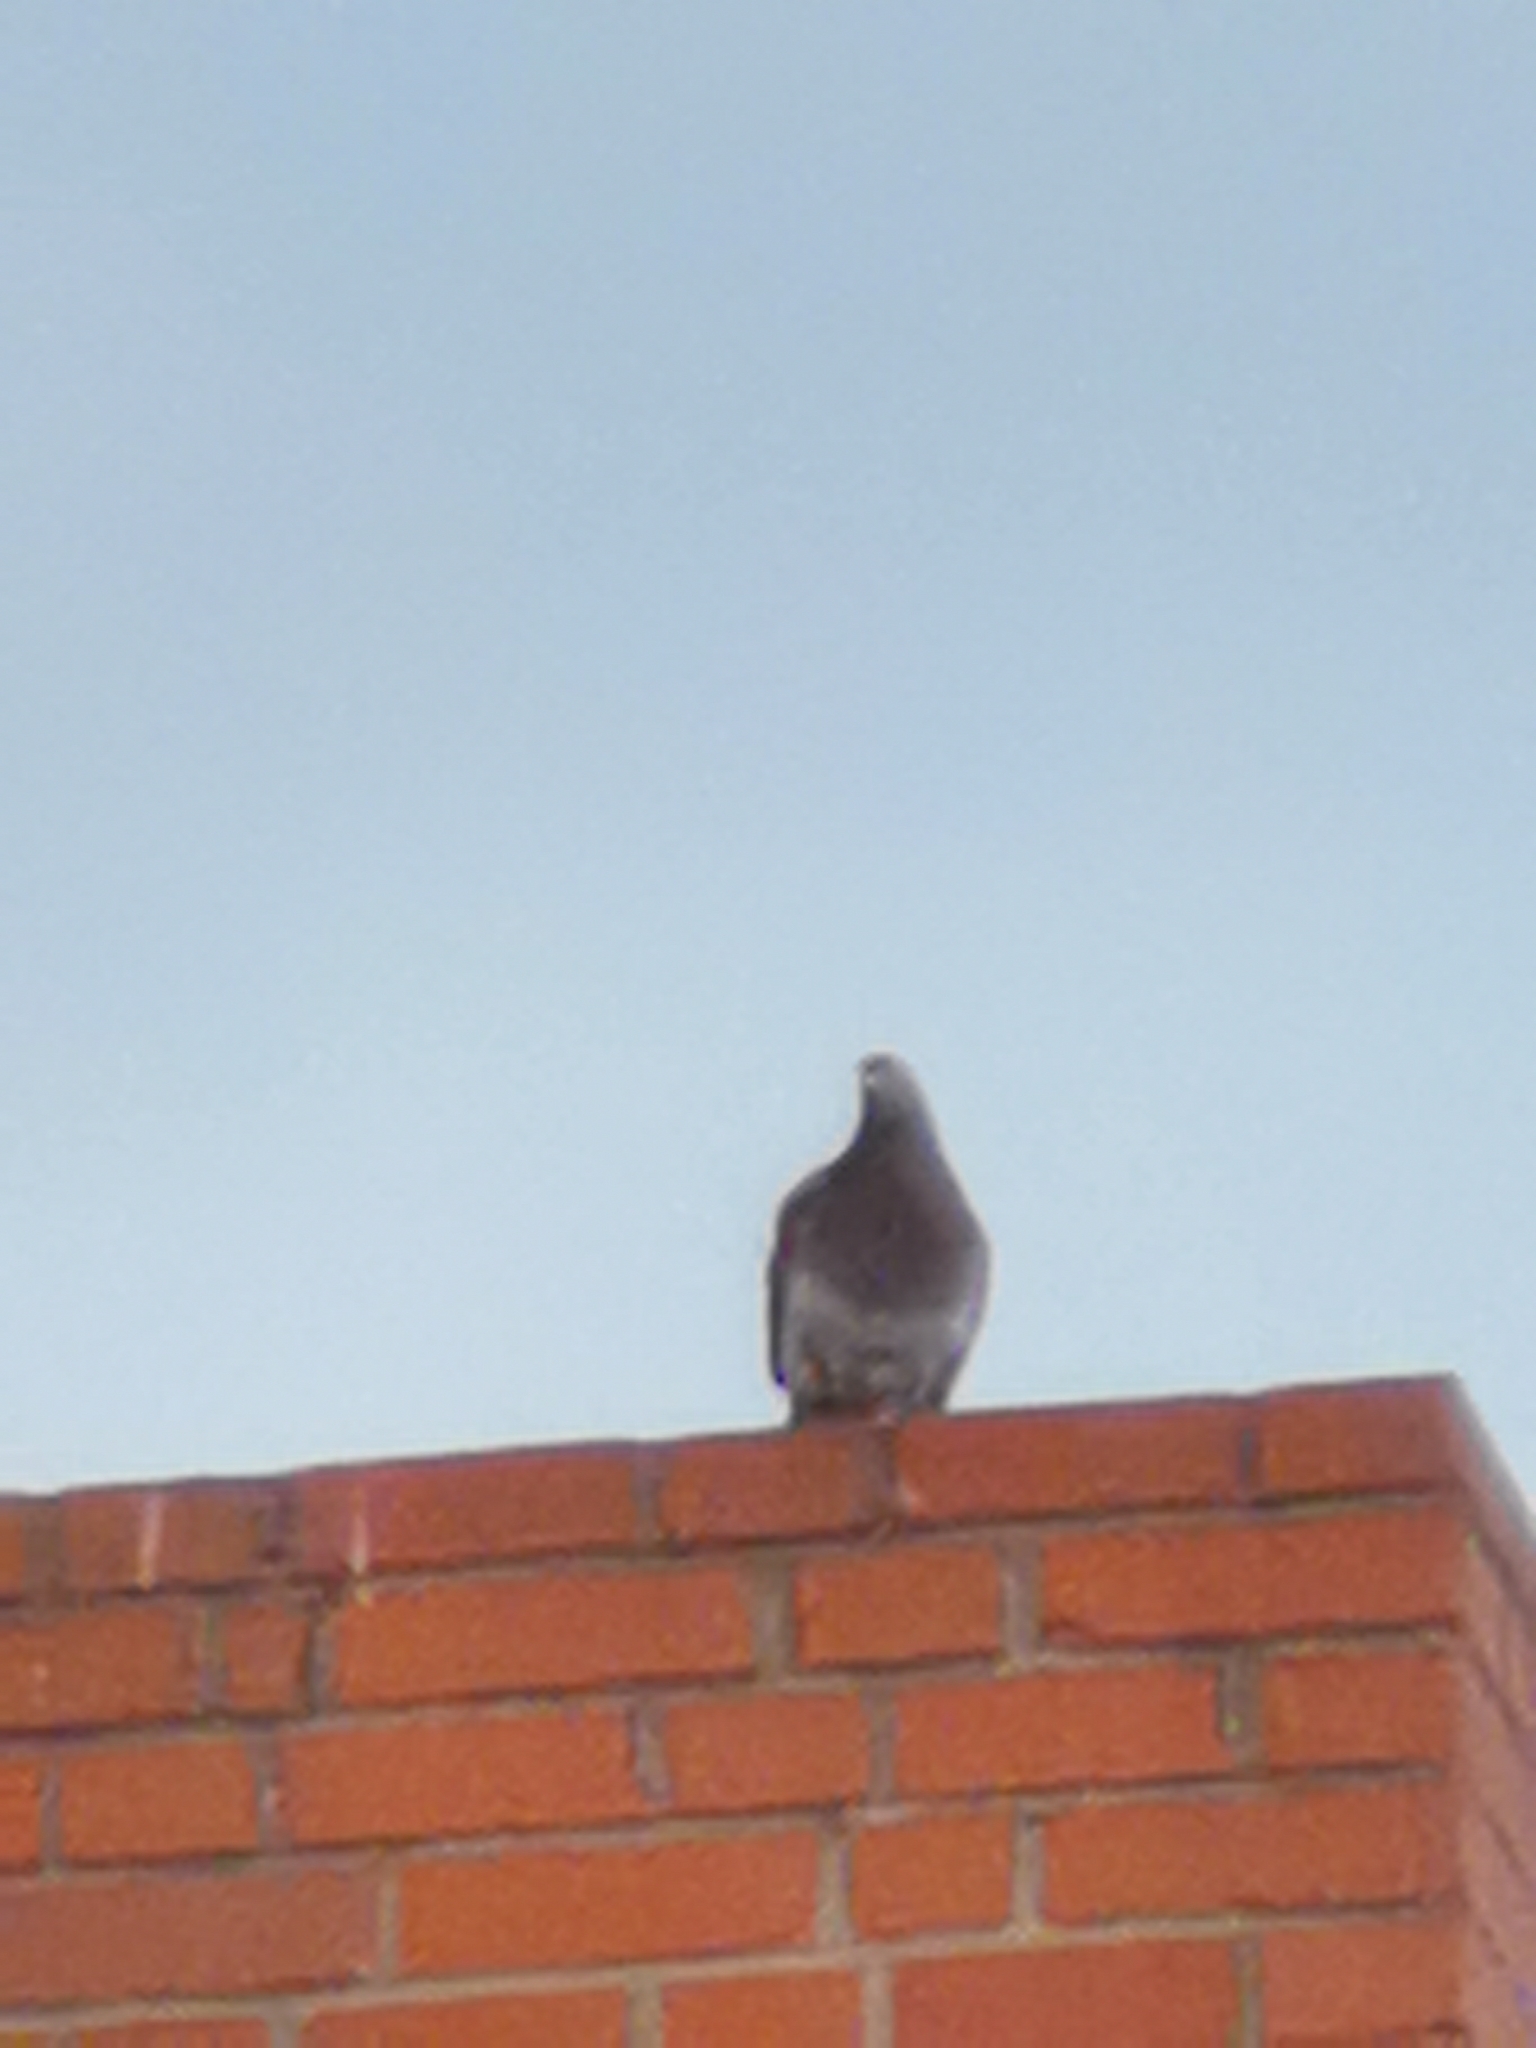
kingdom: Animalia
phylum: Chordata
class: Aves
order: Columbiformes
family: Columbidae
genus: Columba
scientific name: Columba livia
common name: Rock pigeon
